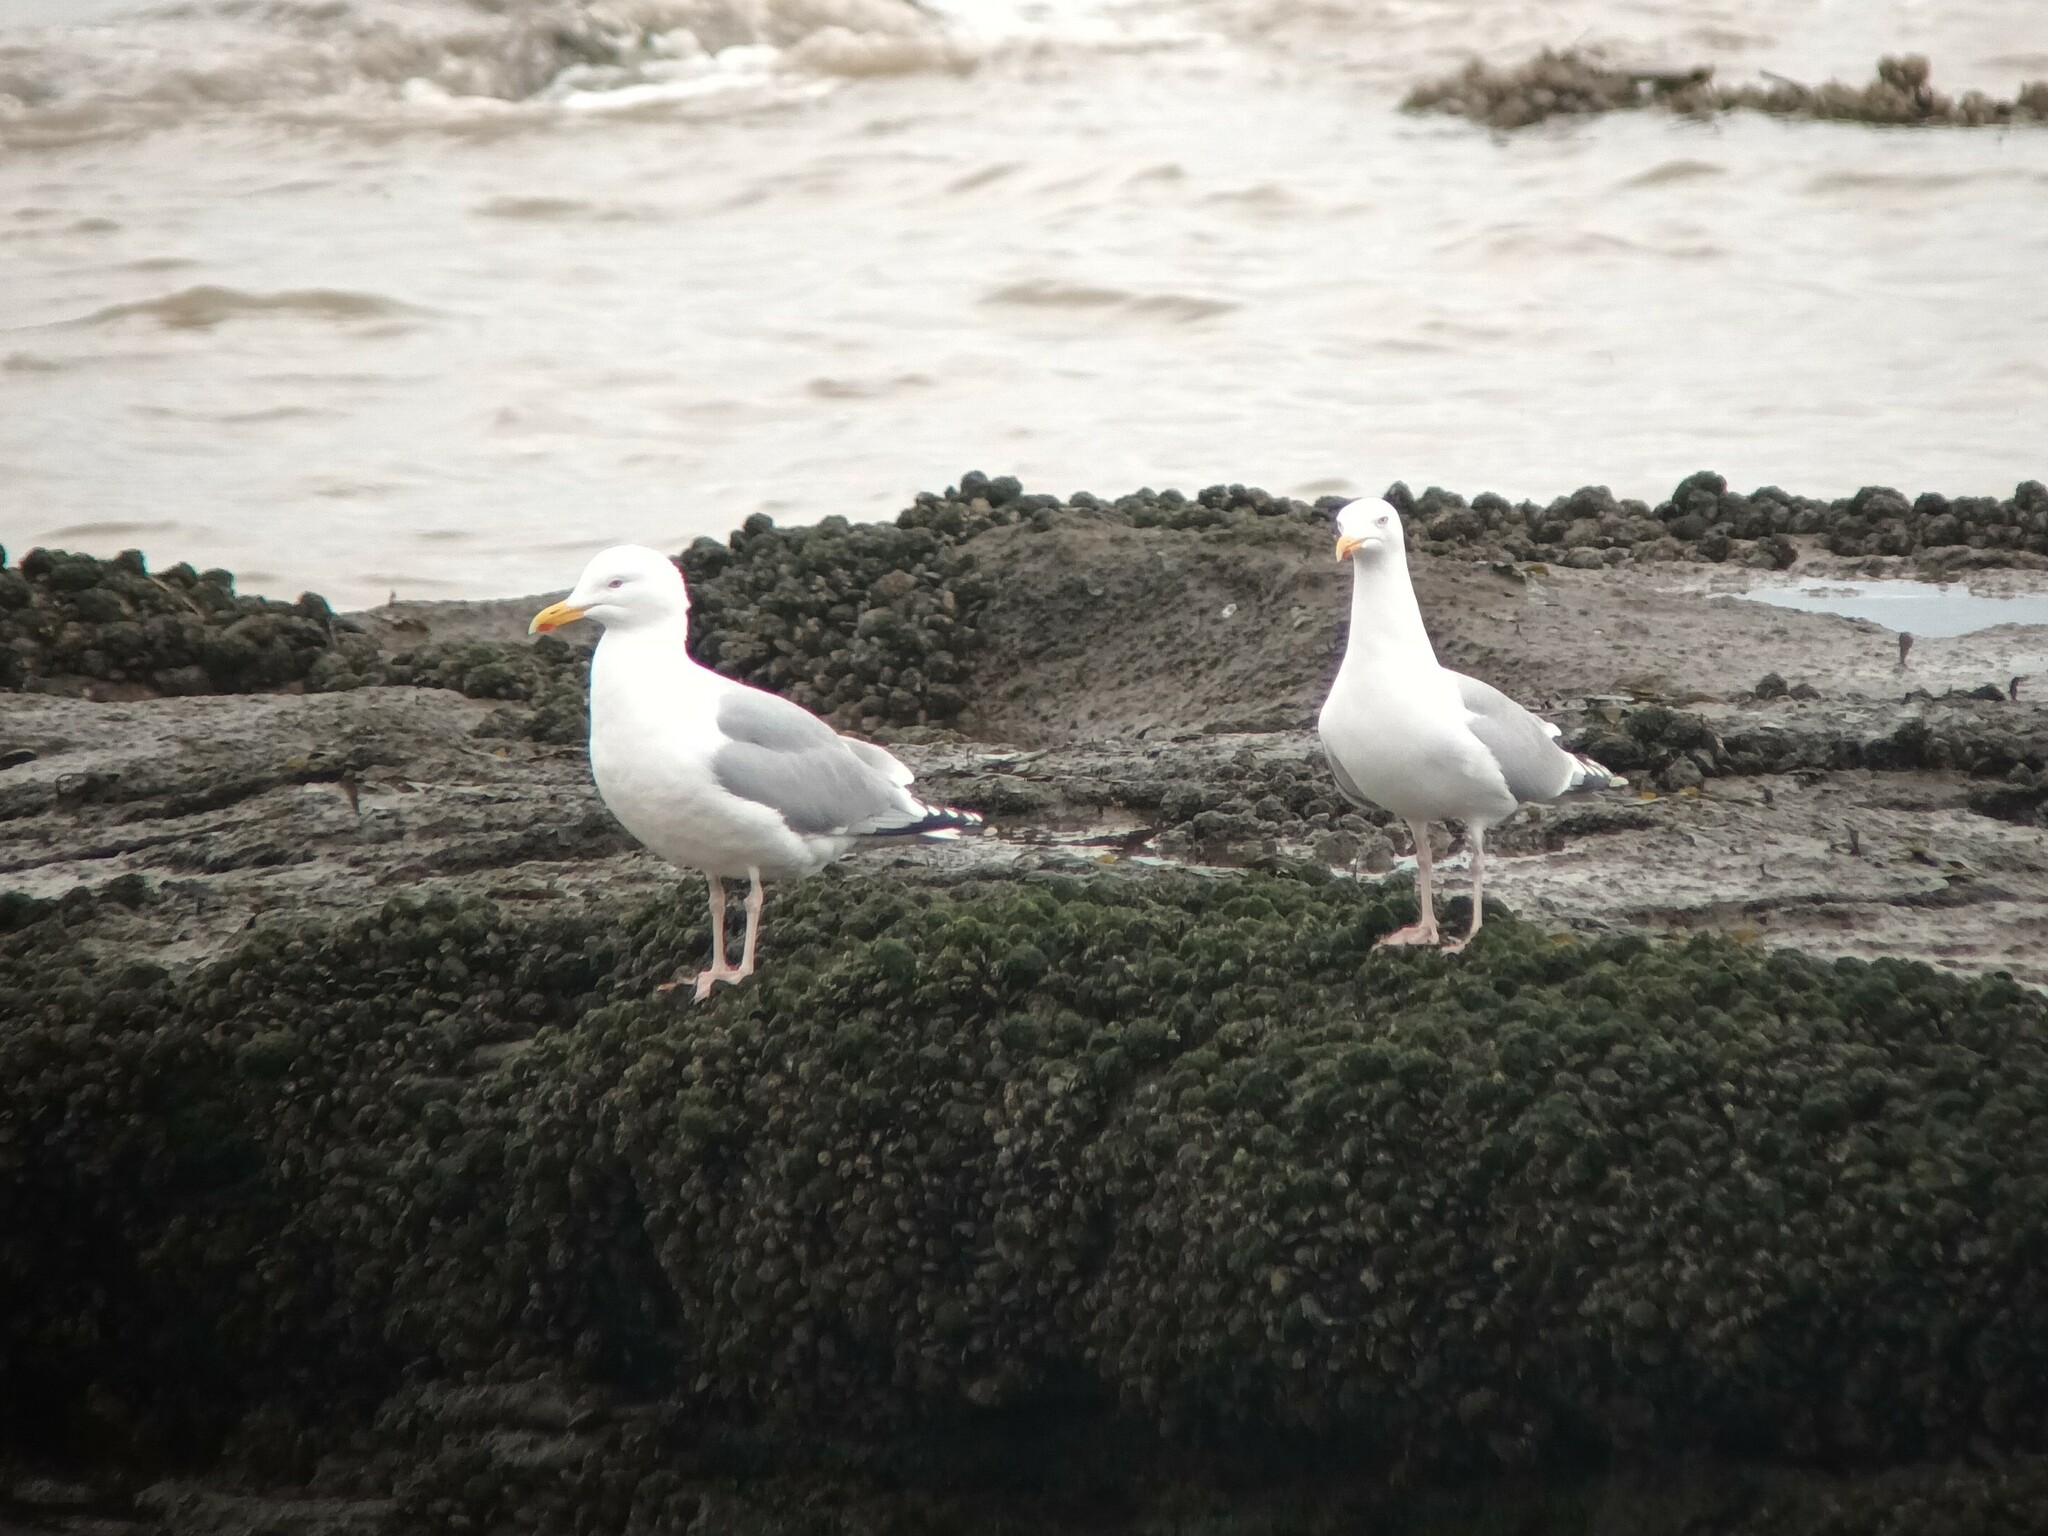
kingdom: Animalia
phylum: Chordata
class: Aves
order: Charadriiformes
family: Laridae
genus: Larus
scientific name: Larus argentatus
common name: Herring gull
